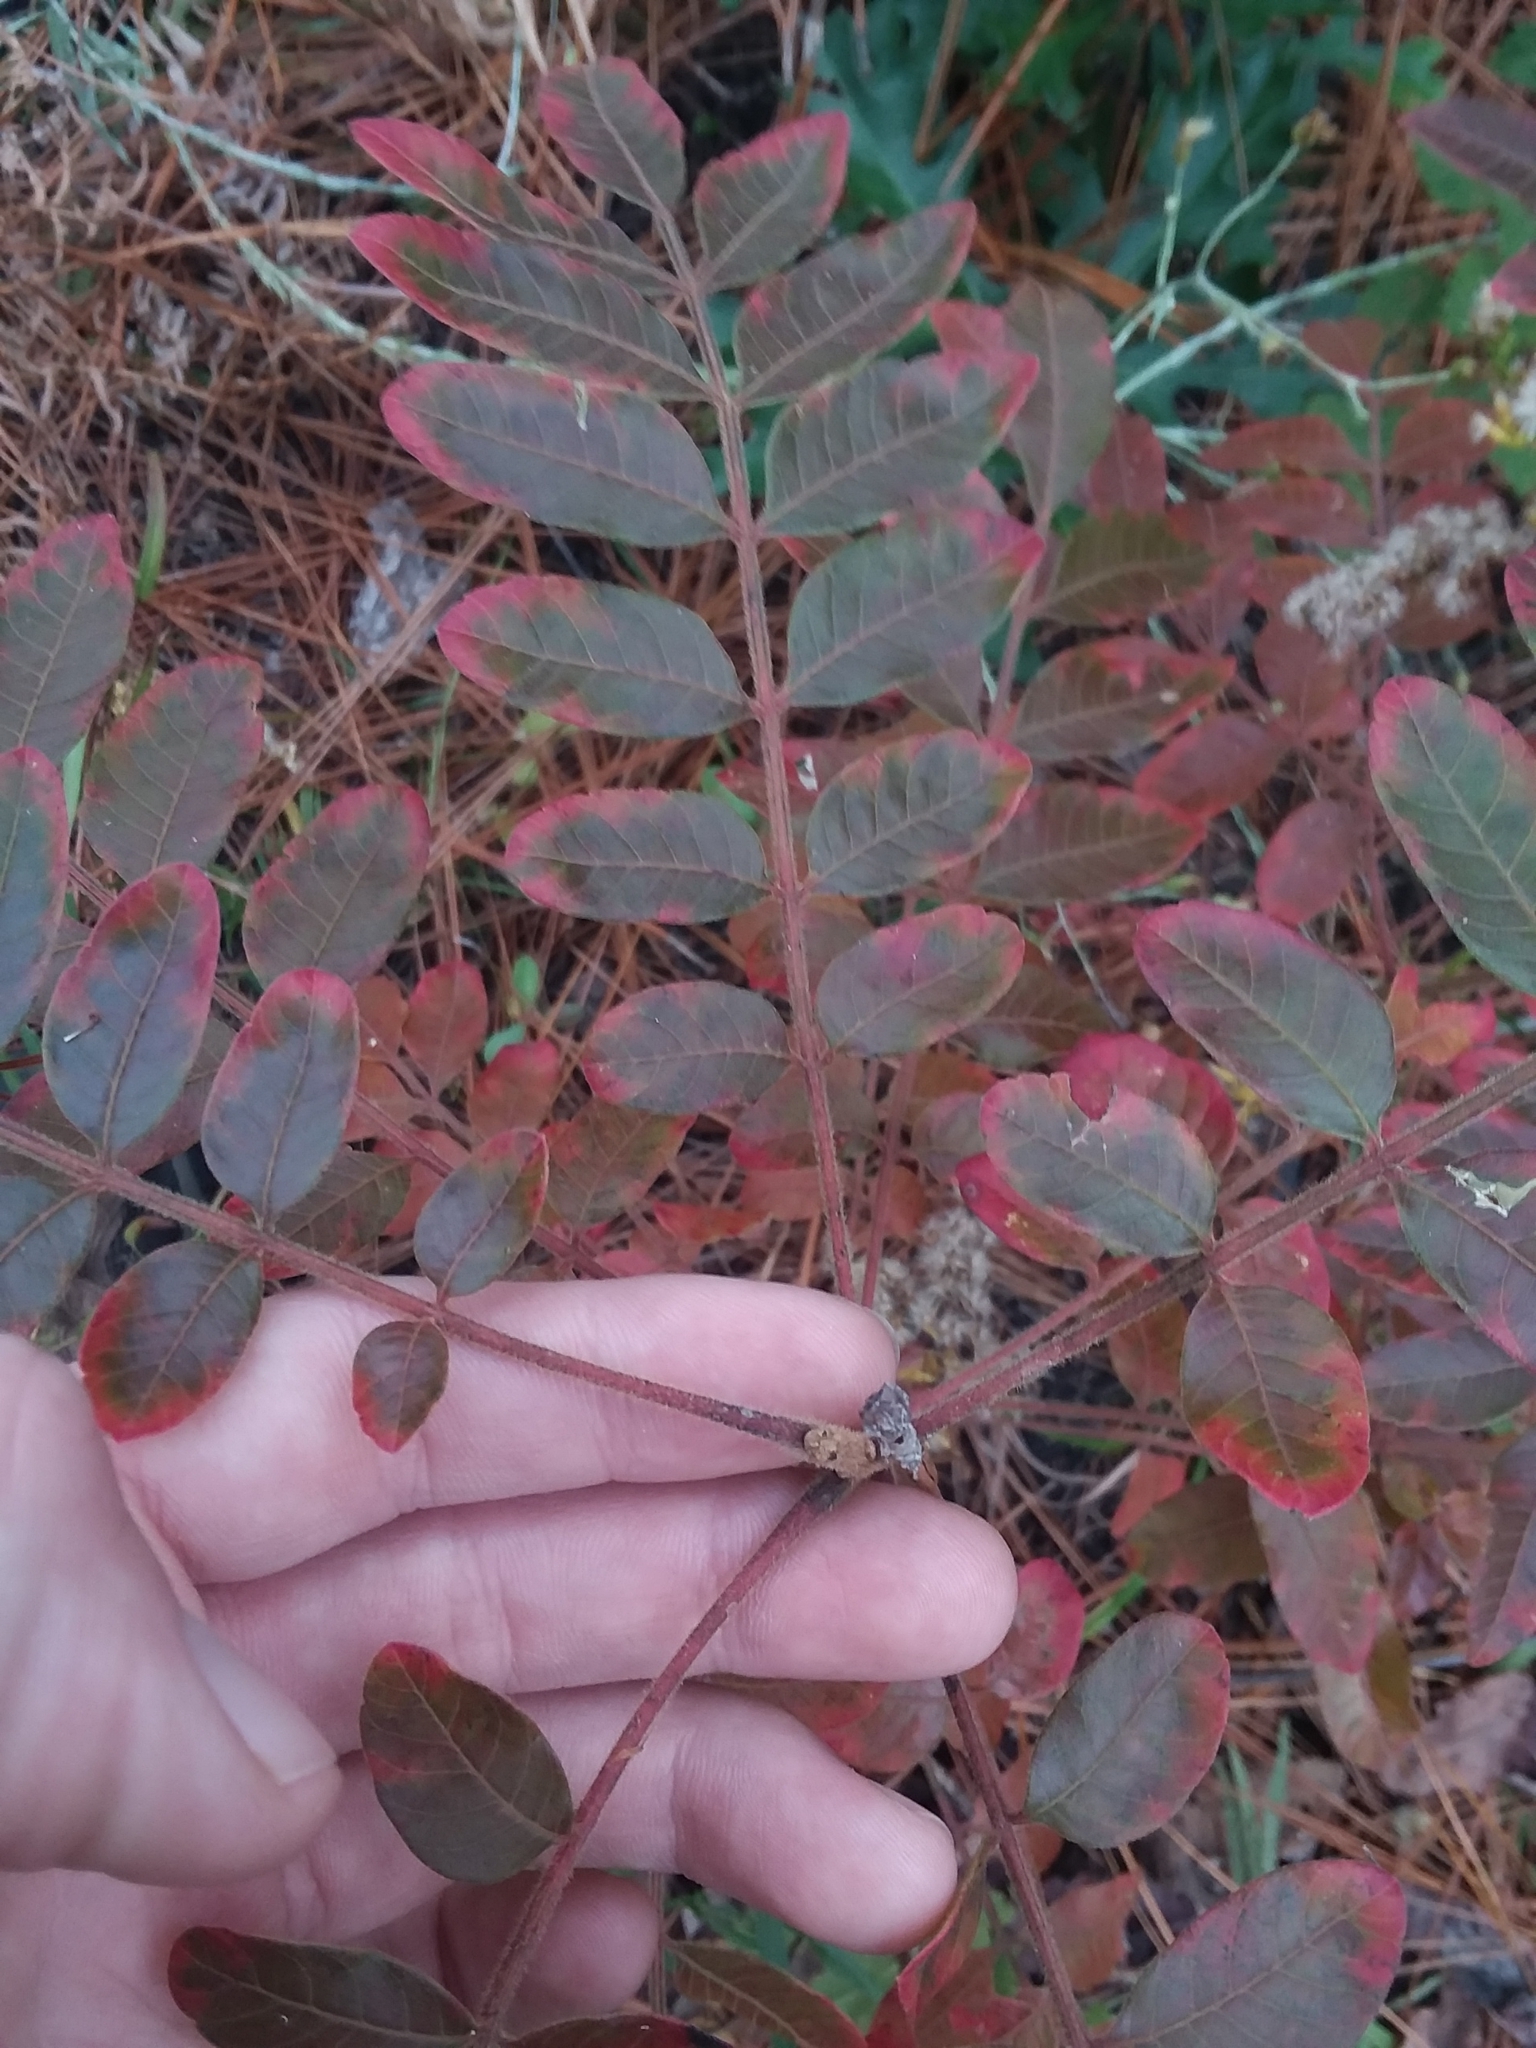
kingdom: Plantae
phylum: Tracheophyta
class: Magnoliopsida
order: Sapindales
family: Anacardiaceae
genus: Rhus
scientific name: Rhus copallina
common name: Shining sumac
